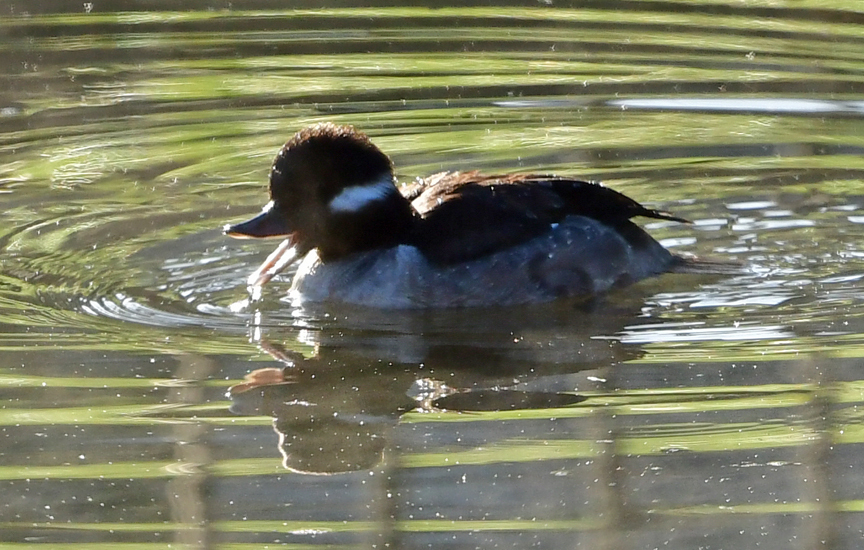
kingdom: Animalia
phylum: Chordata
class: Aves
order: Anseriformes
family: Anatidae
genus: Bucephala
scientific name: Bucephala albeola
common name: Bufflehead
